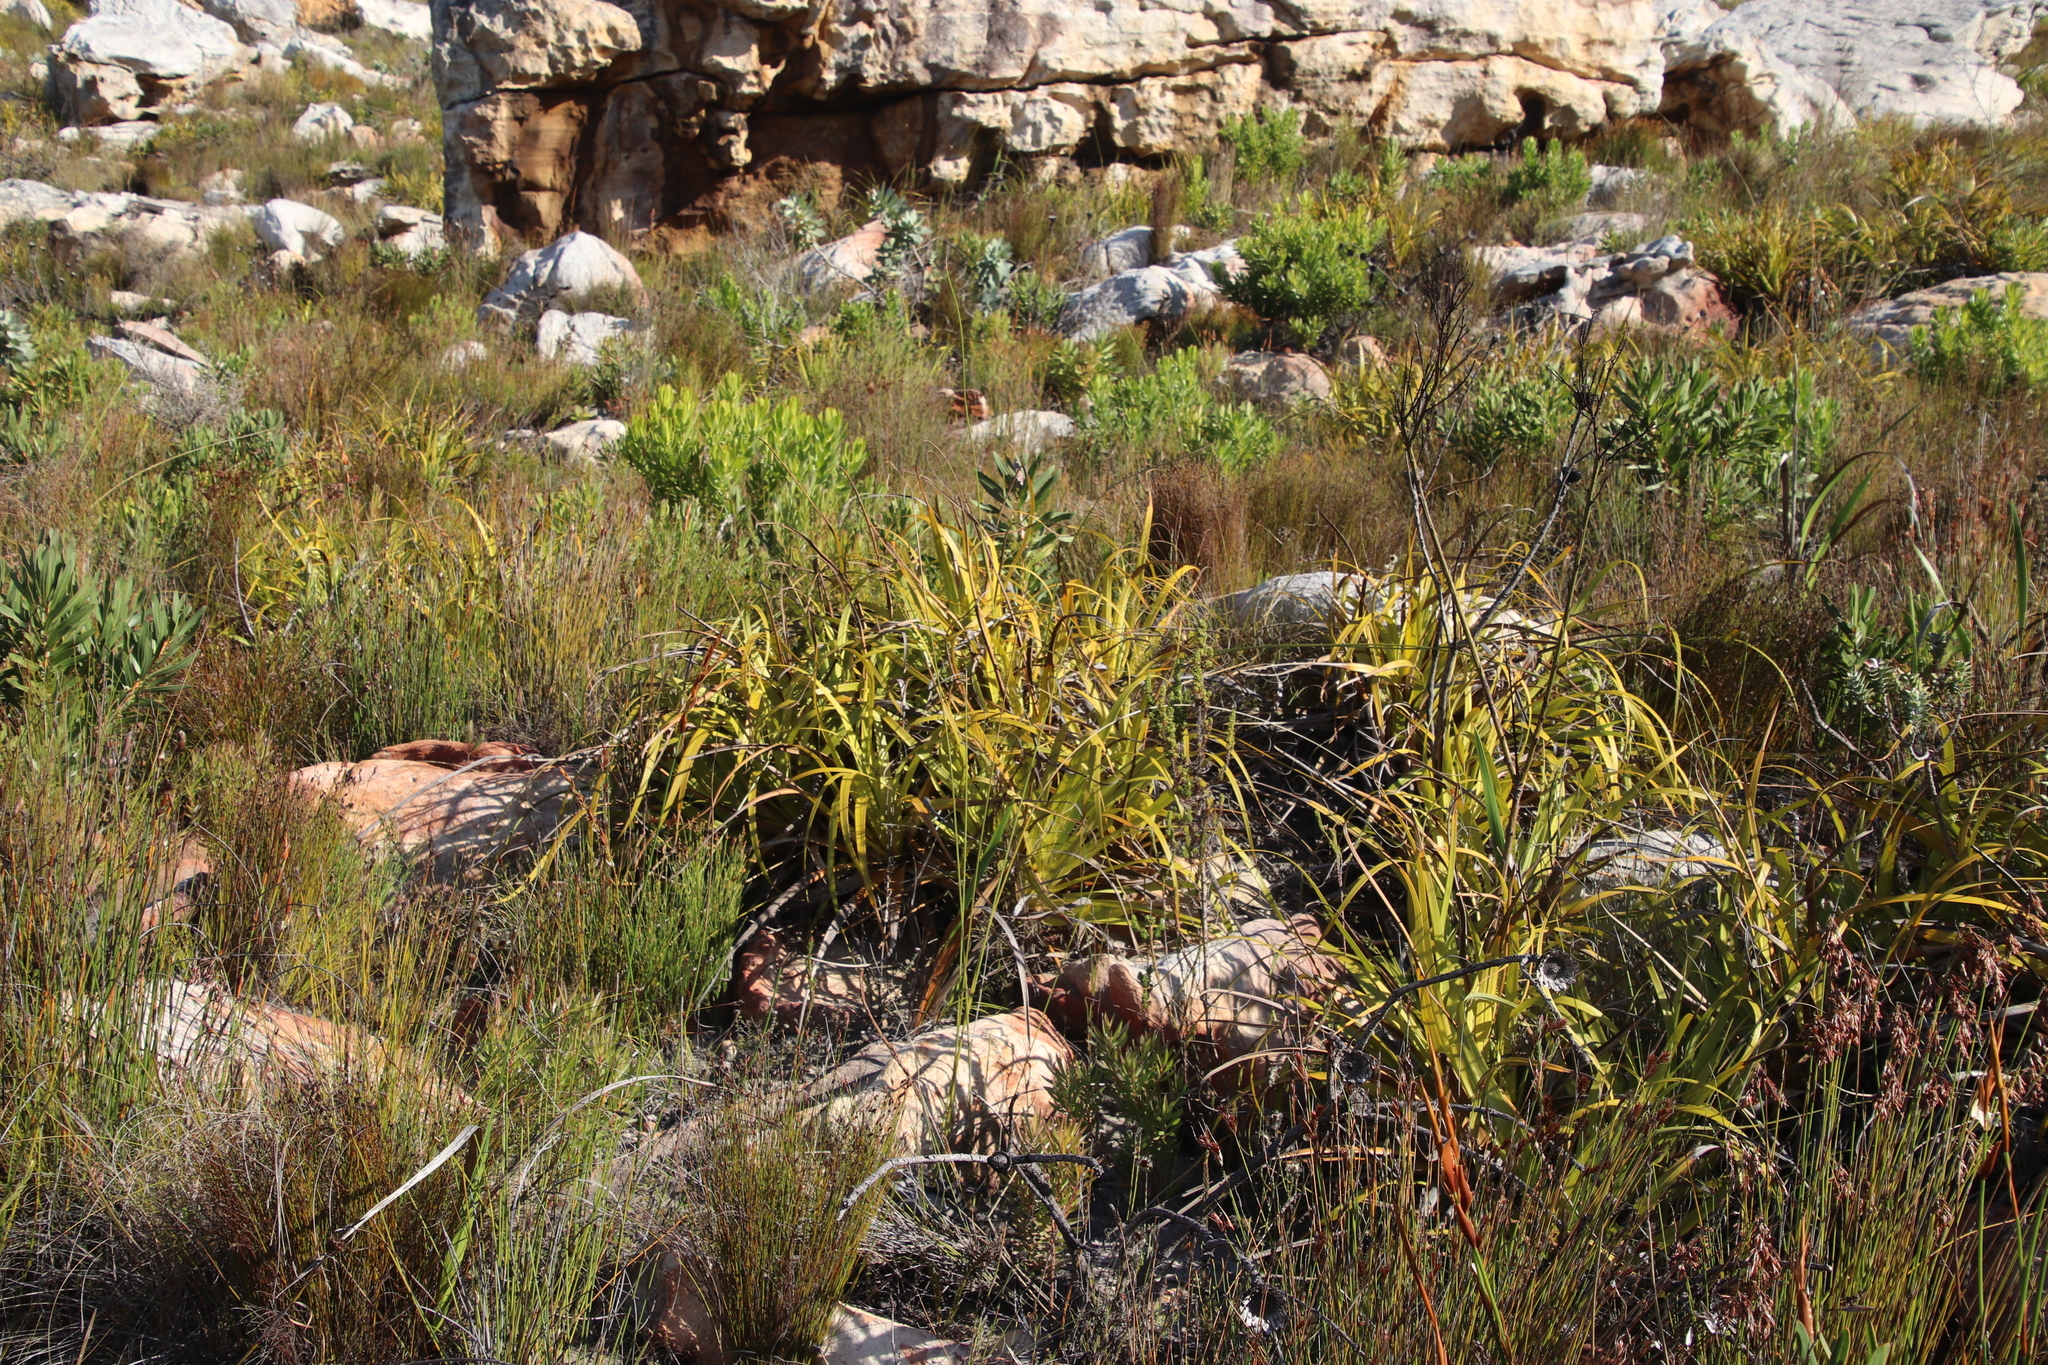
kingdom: Plantae
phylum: Tracheophyta
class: Liliopsida
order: Poales
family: Cyperaceae
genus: Tetraria
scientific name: Tetraria thermalis
